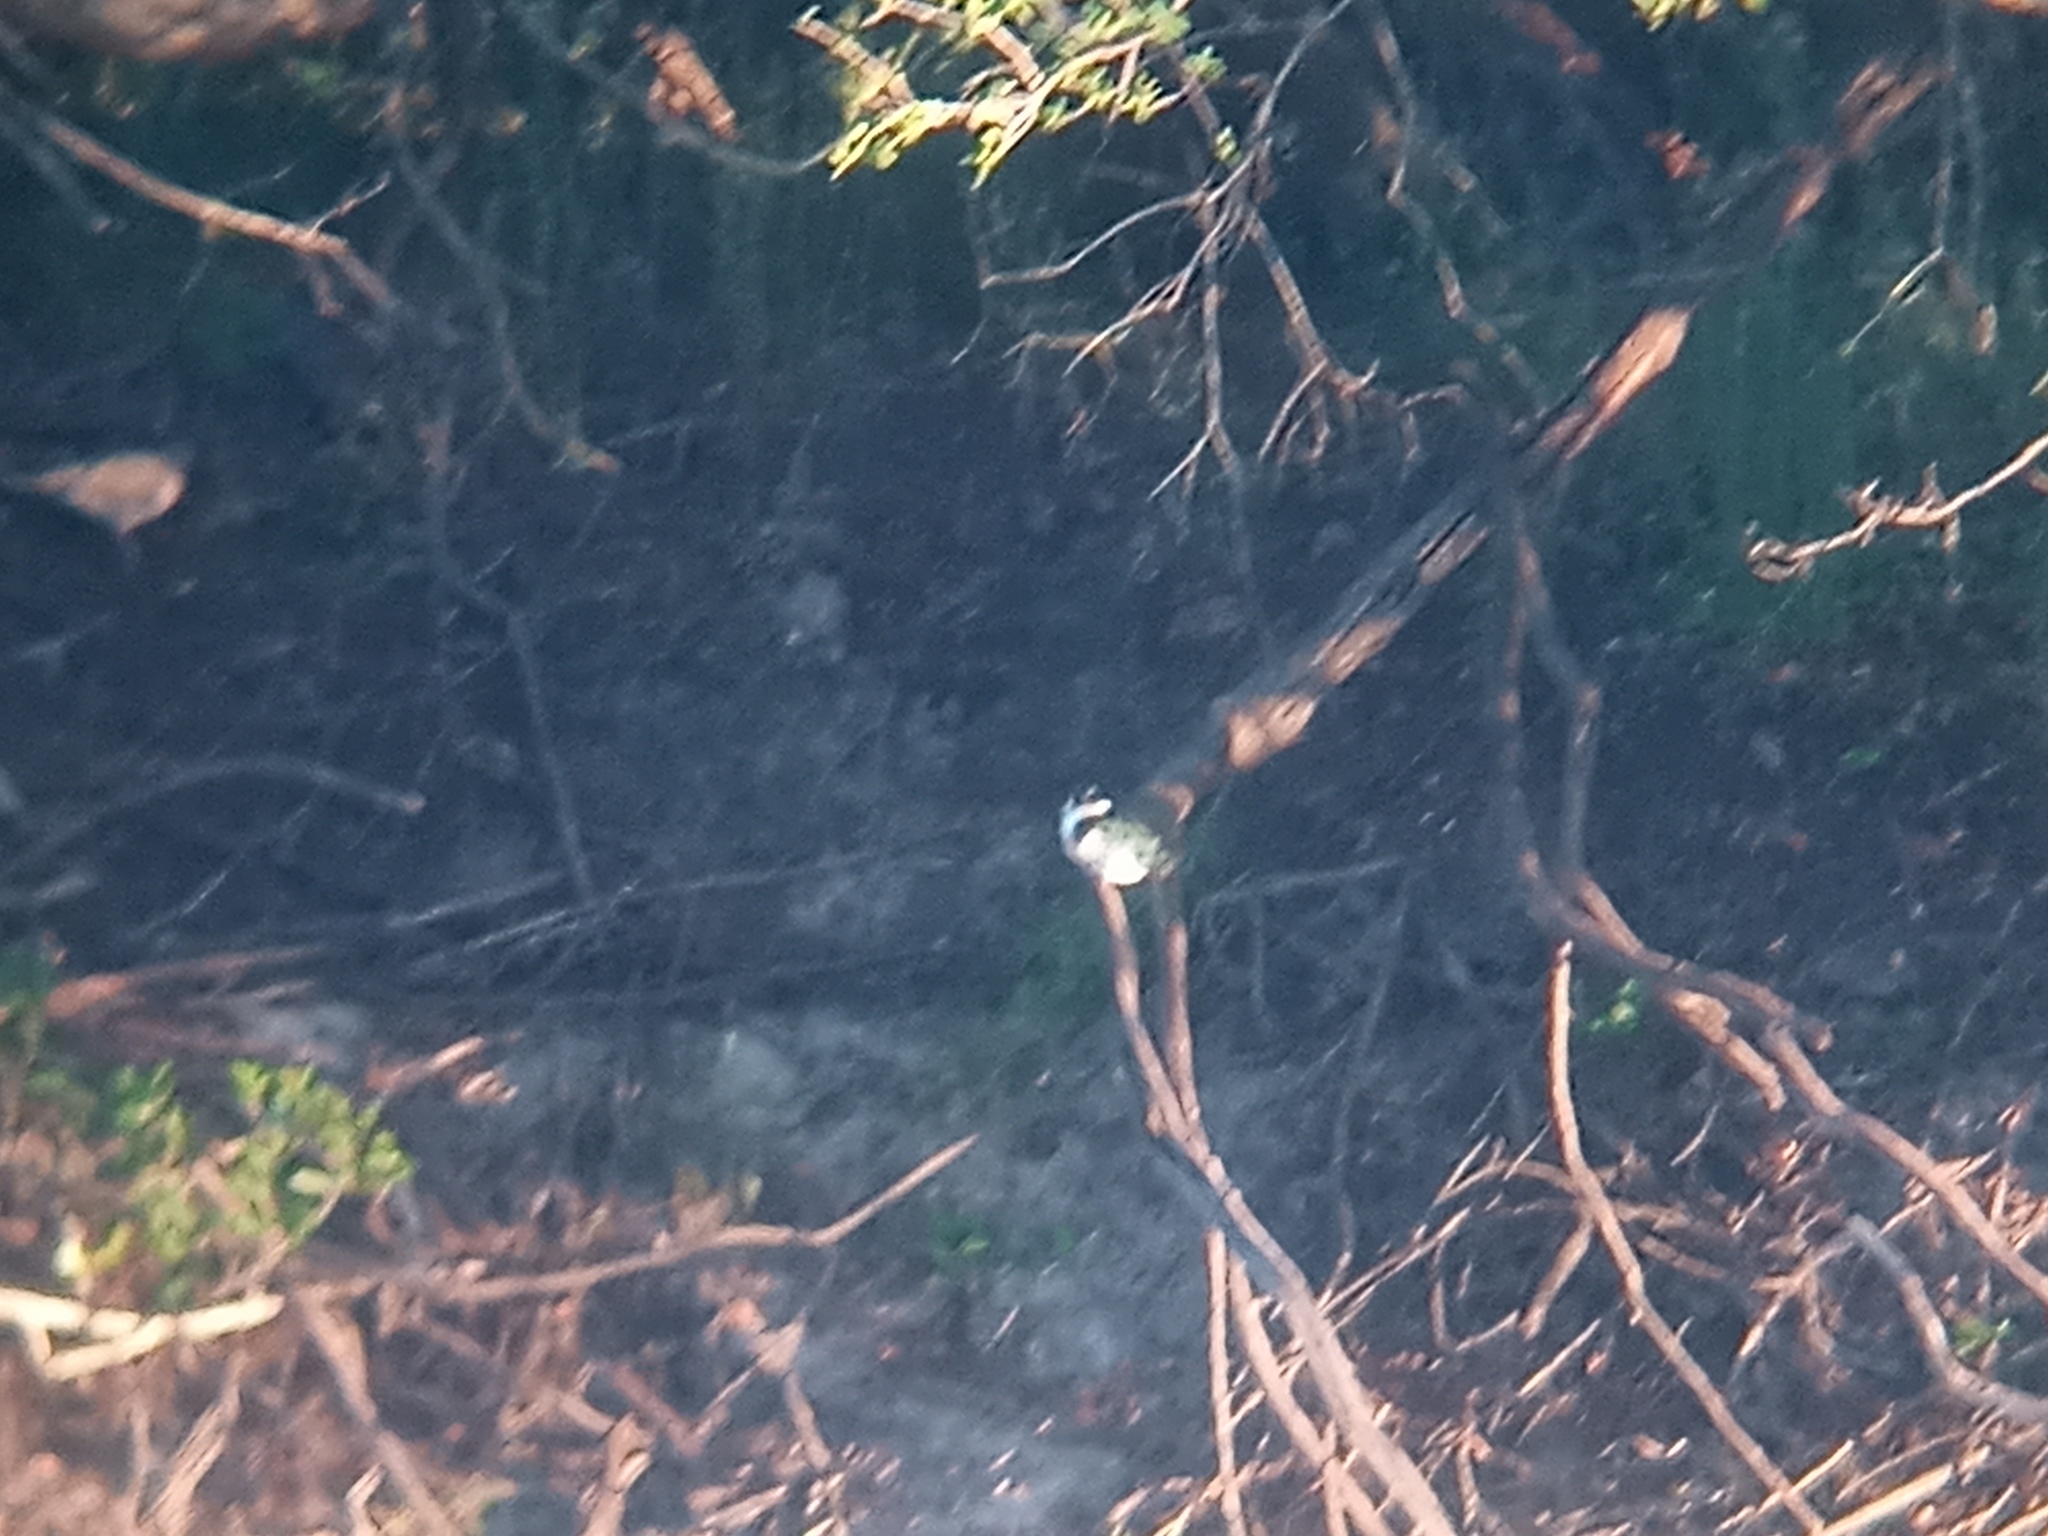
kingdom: Animalia
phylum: Chordata
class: Aves
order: Coraciiformes
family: Alcedinidae
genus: Chloroceryle
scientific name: Chloroceryle amazona
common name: Amazon kingfisher
